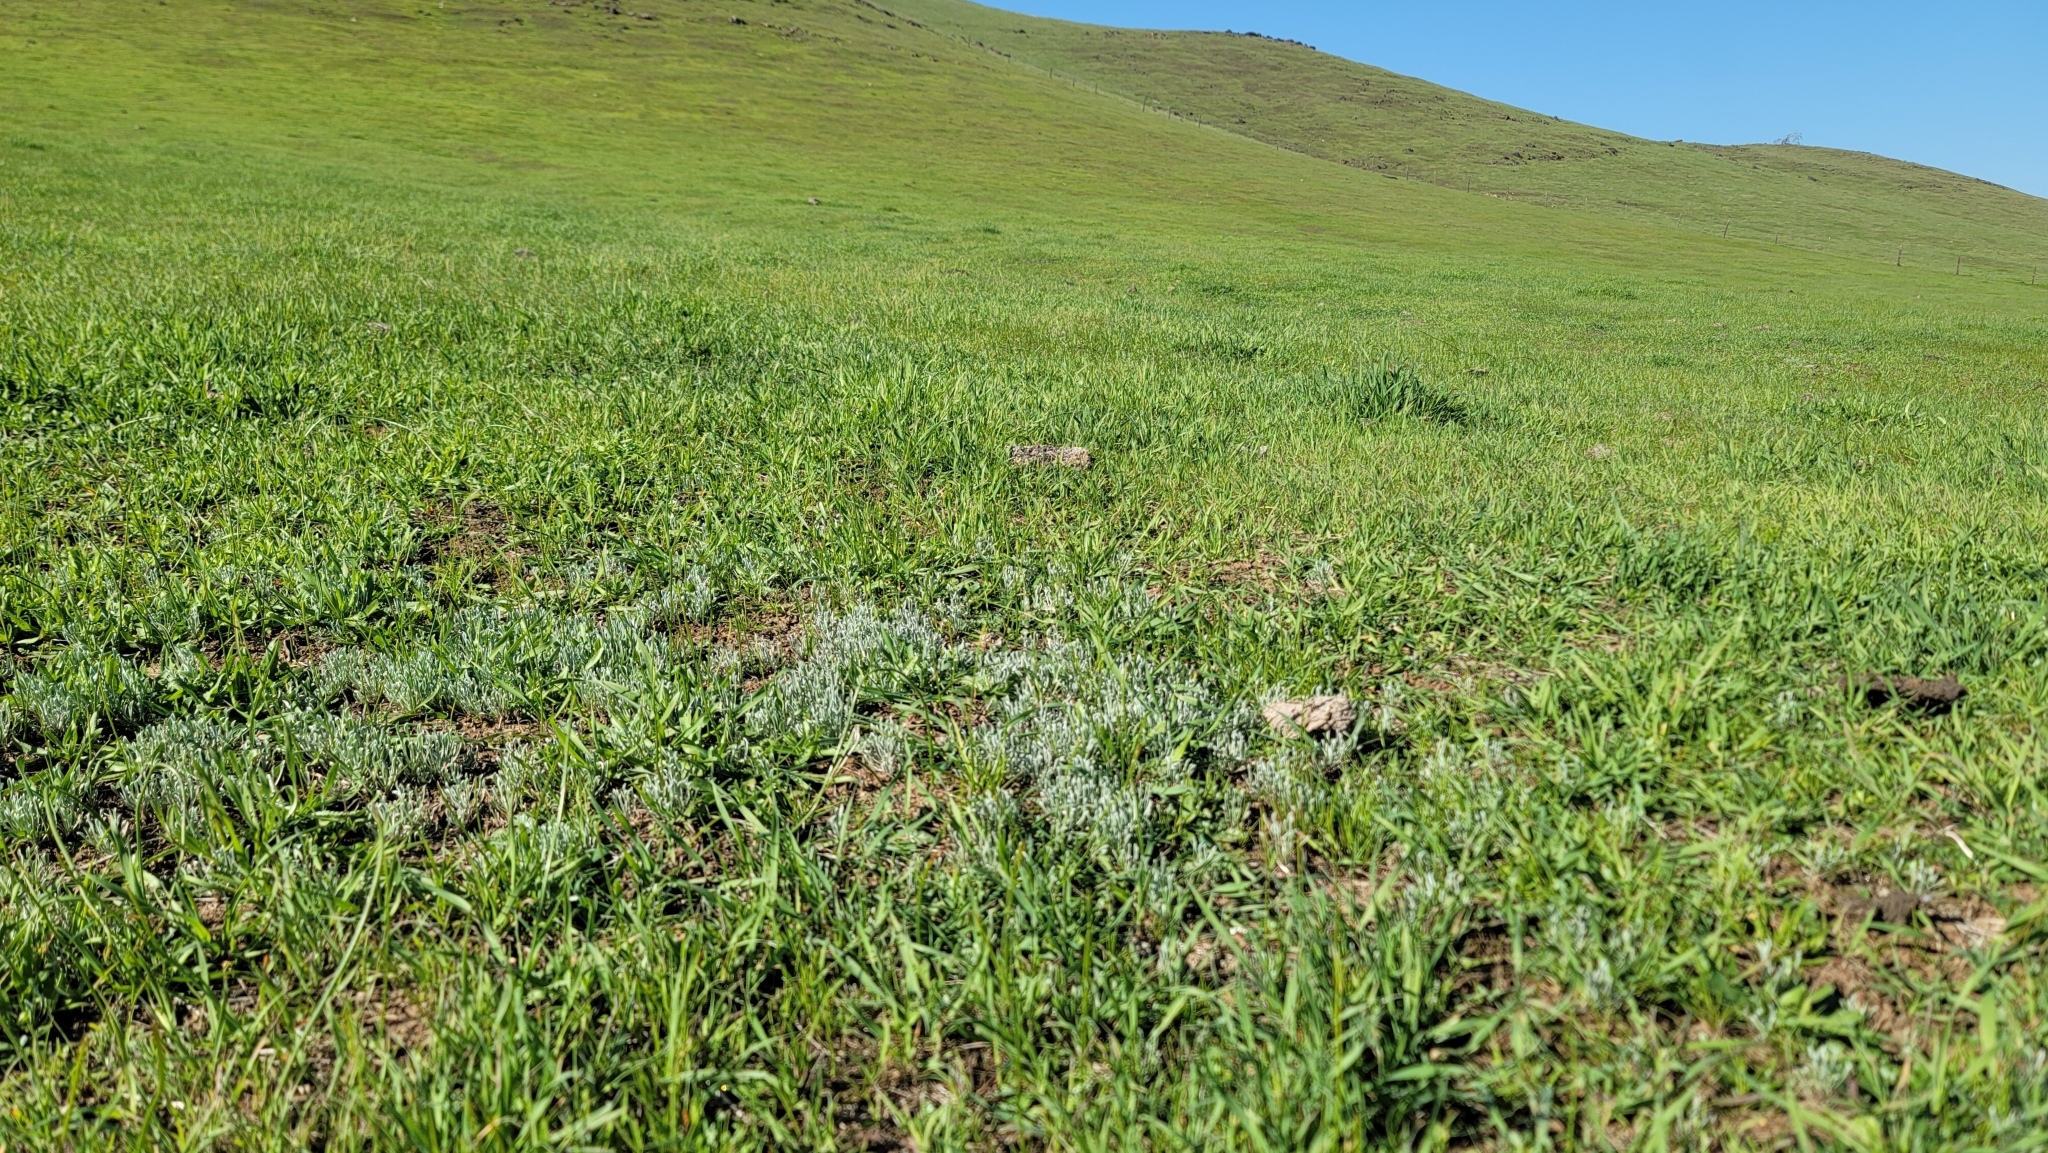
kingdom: Plantae
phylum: Tracheophyta
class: Magnoliopsida
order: Asterales
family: Asteraceae
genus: Hesperevax
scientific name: Hesperevax caulescens
